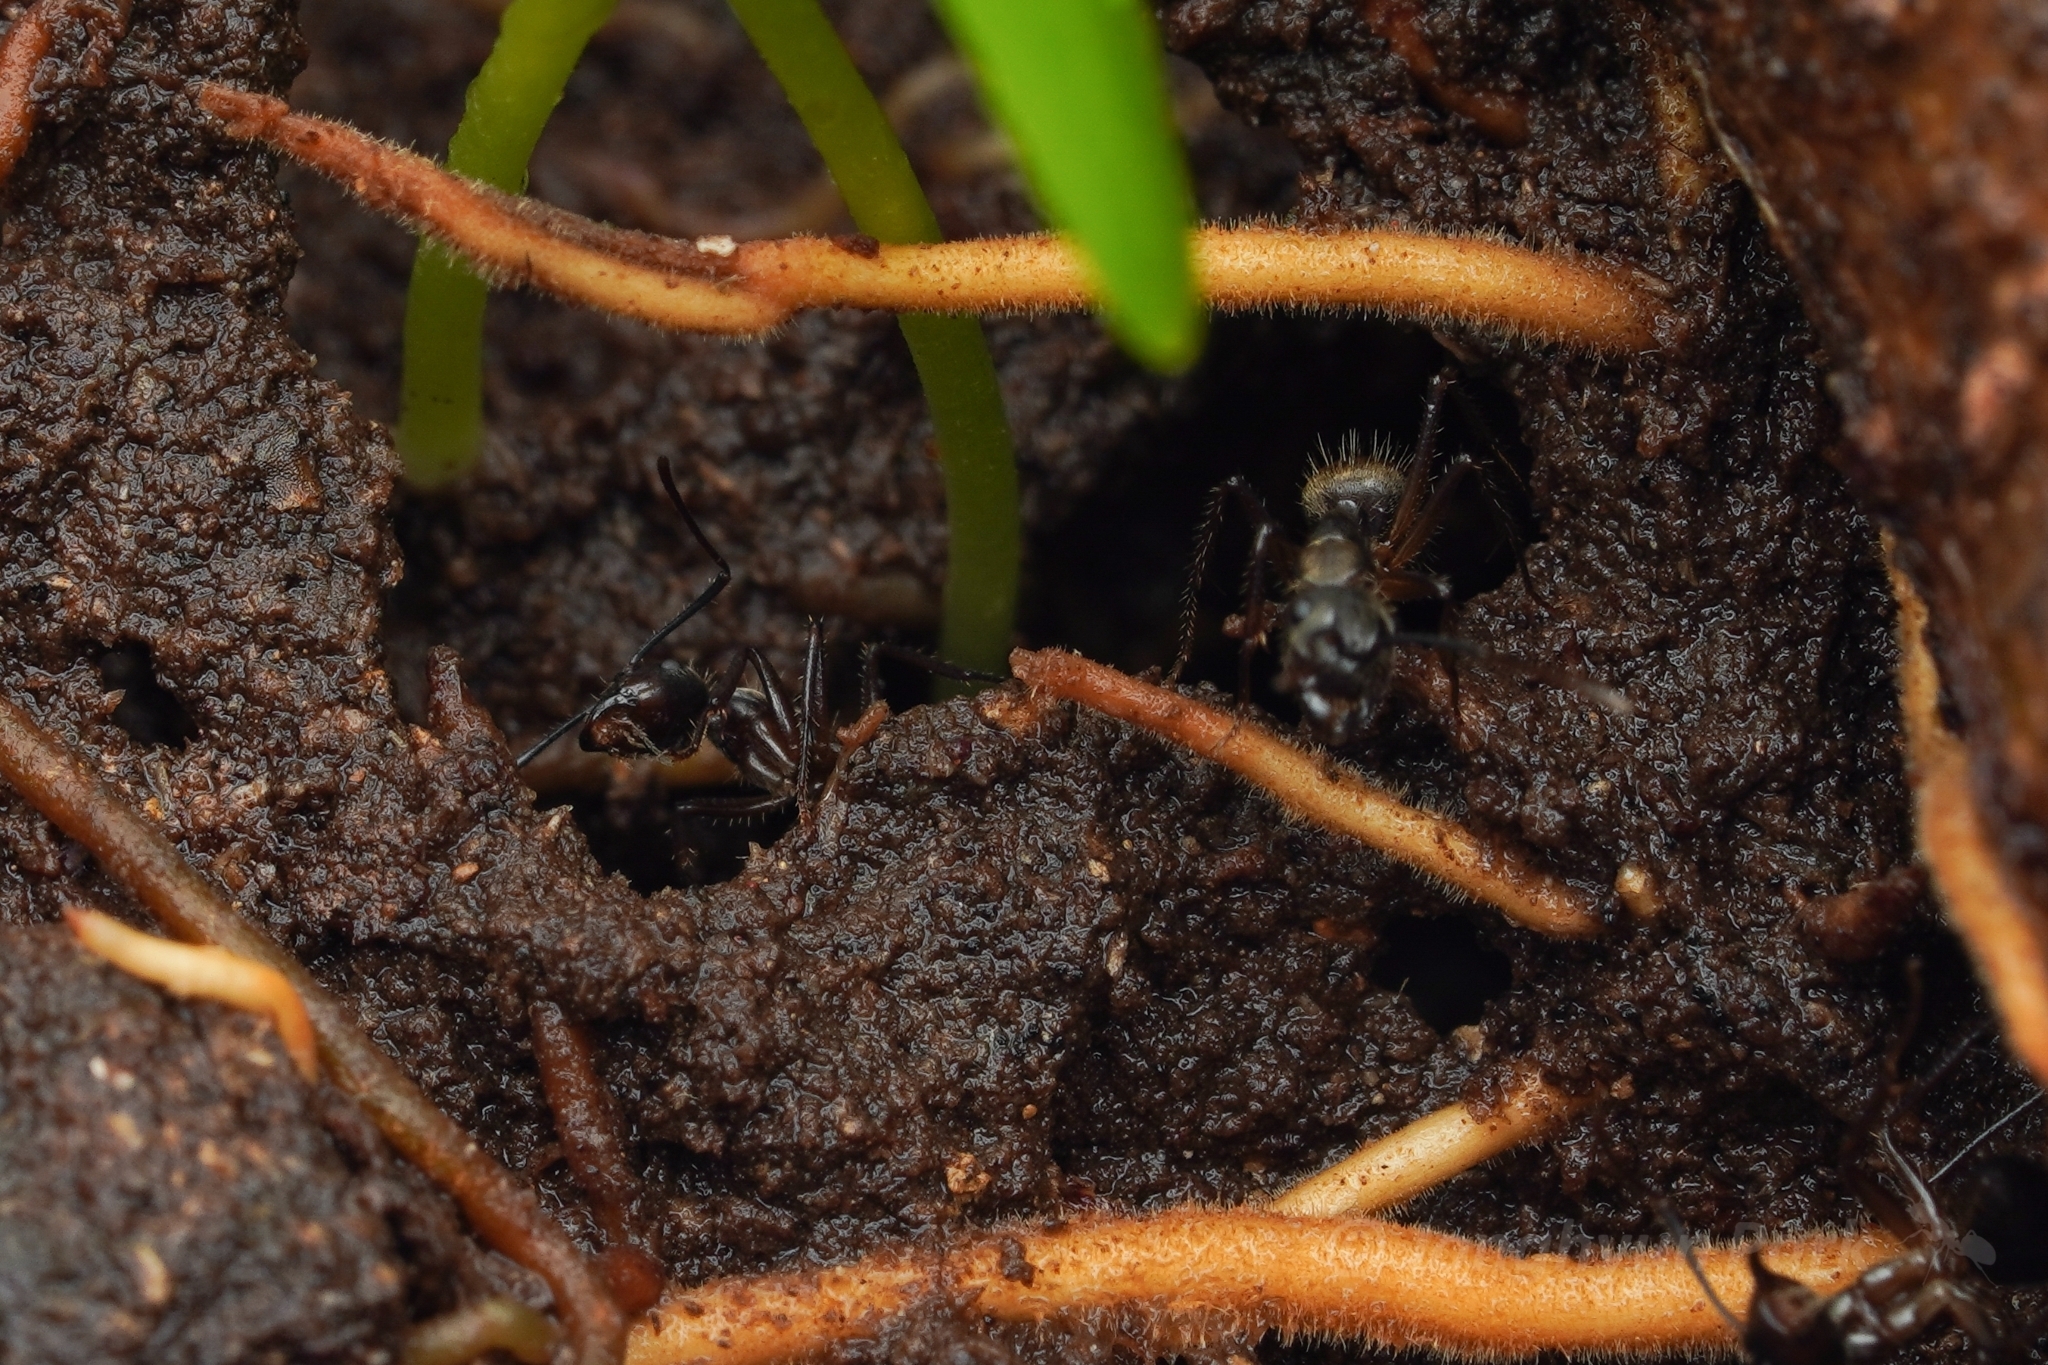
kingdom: Animalia
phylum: Arthropoda
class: Insecta
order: Hymenoptera
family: Formicidae
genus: Camponotus
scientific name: Camponotus femoratus
